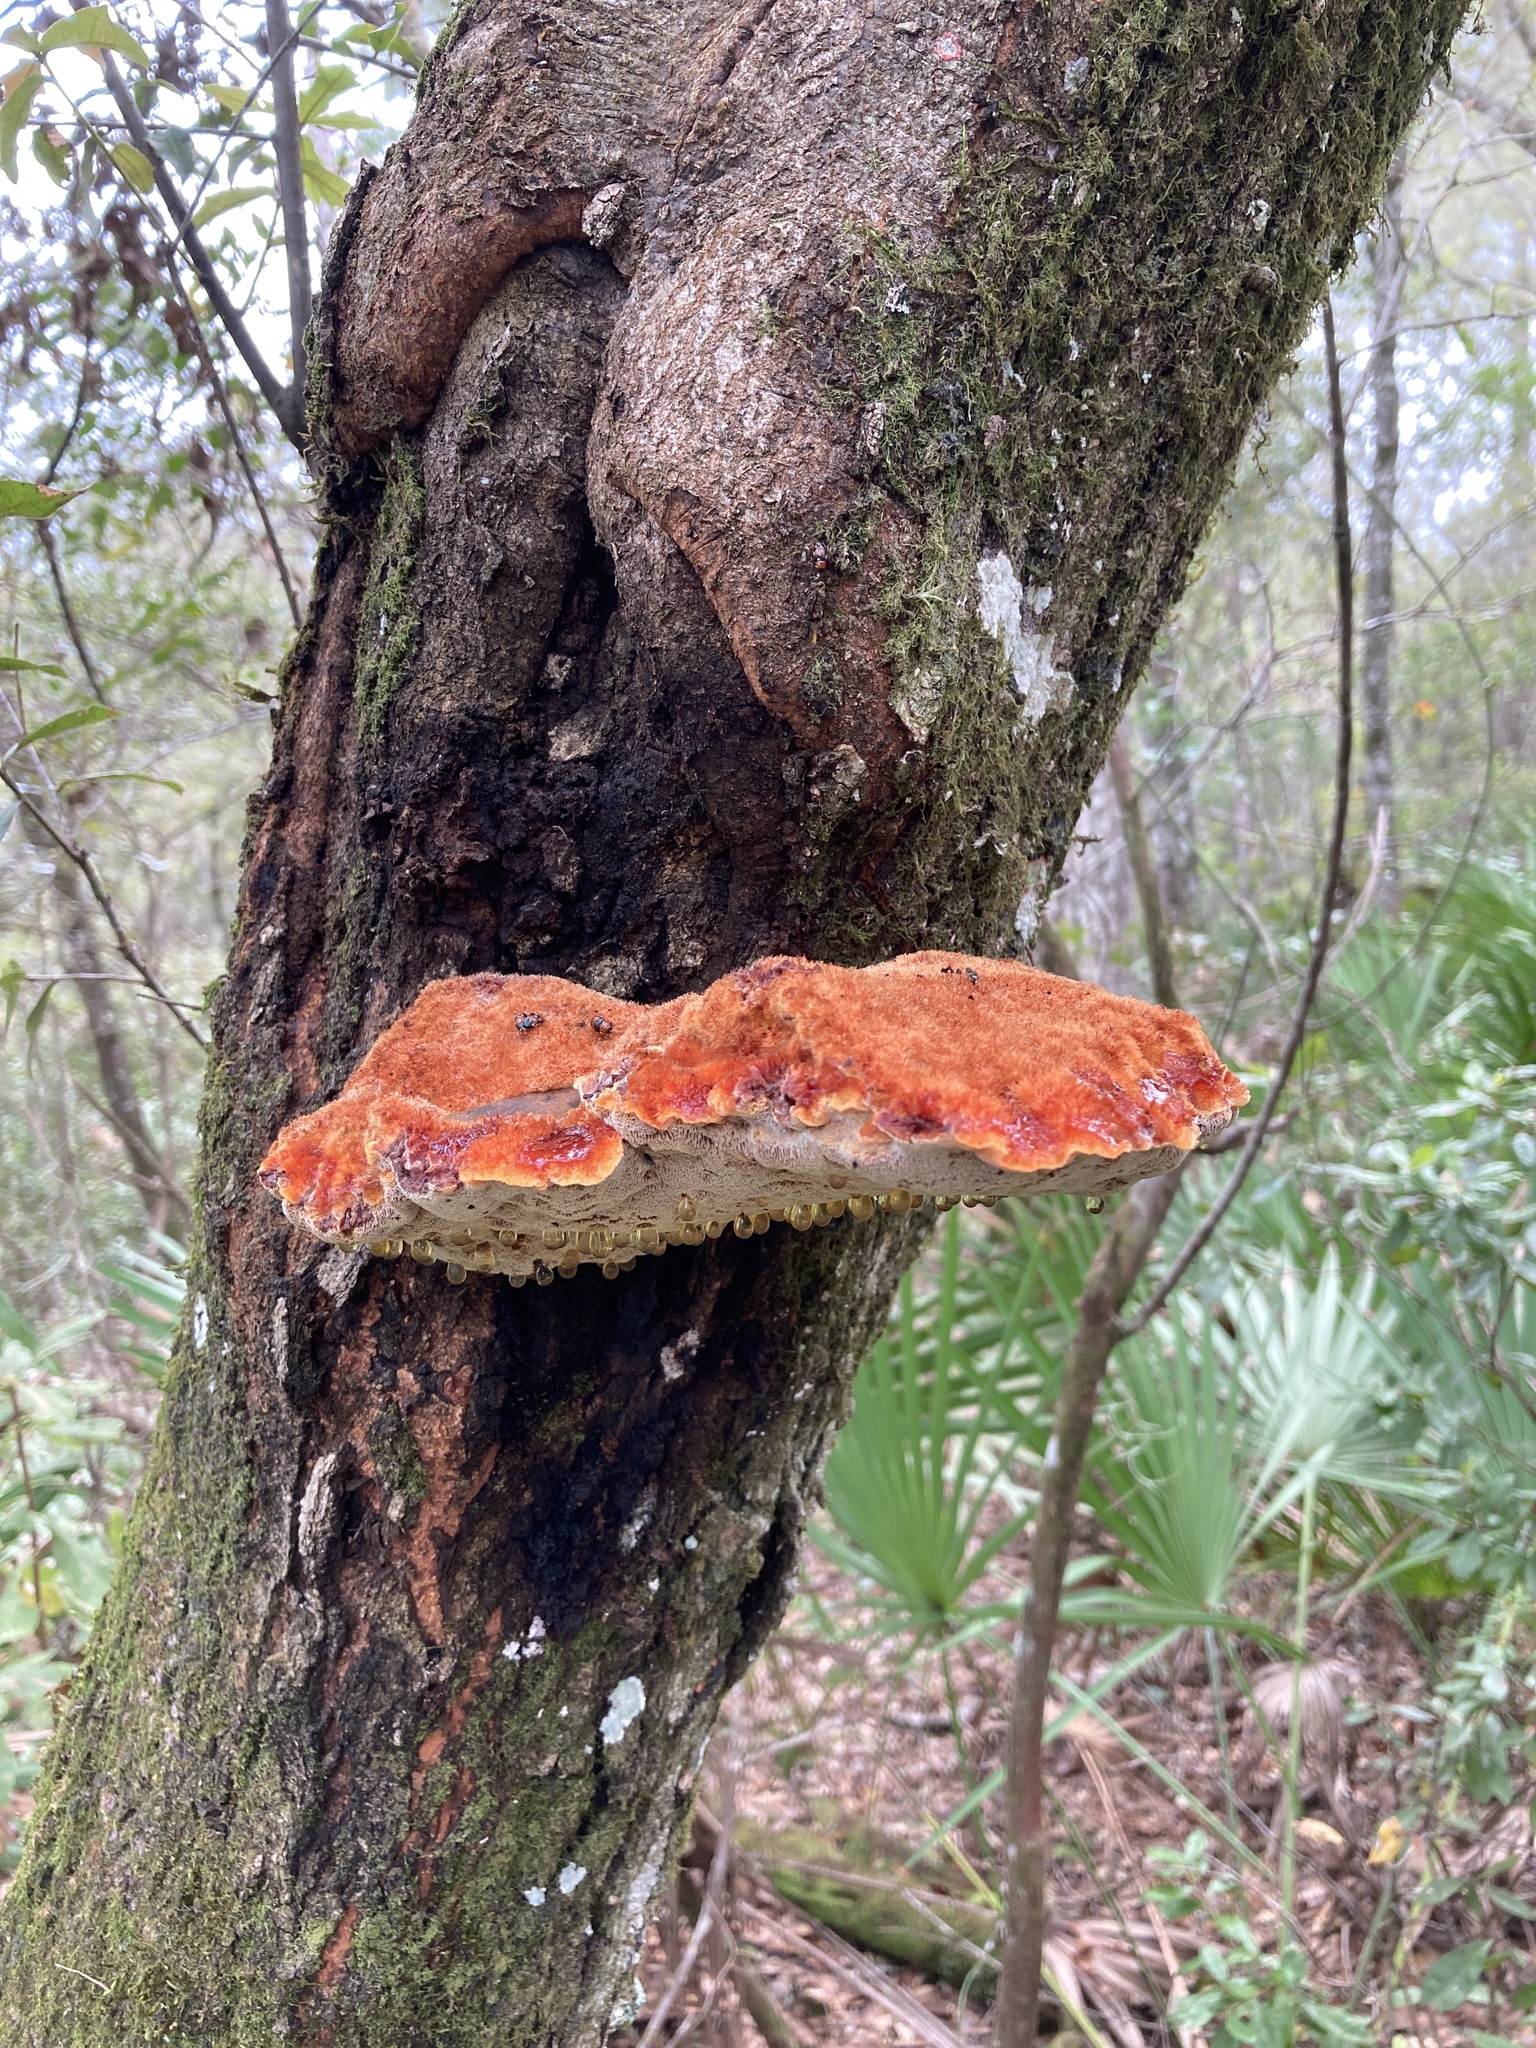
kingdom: Fungi
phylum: Basidiomycota
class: Agaricomycetes
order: Hymenochaetales
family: Hymenochaetaceae
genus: Inonotus
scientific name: Inonotus hispidus
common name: Shaggy bracket
